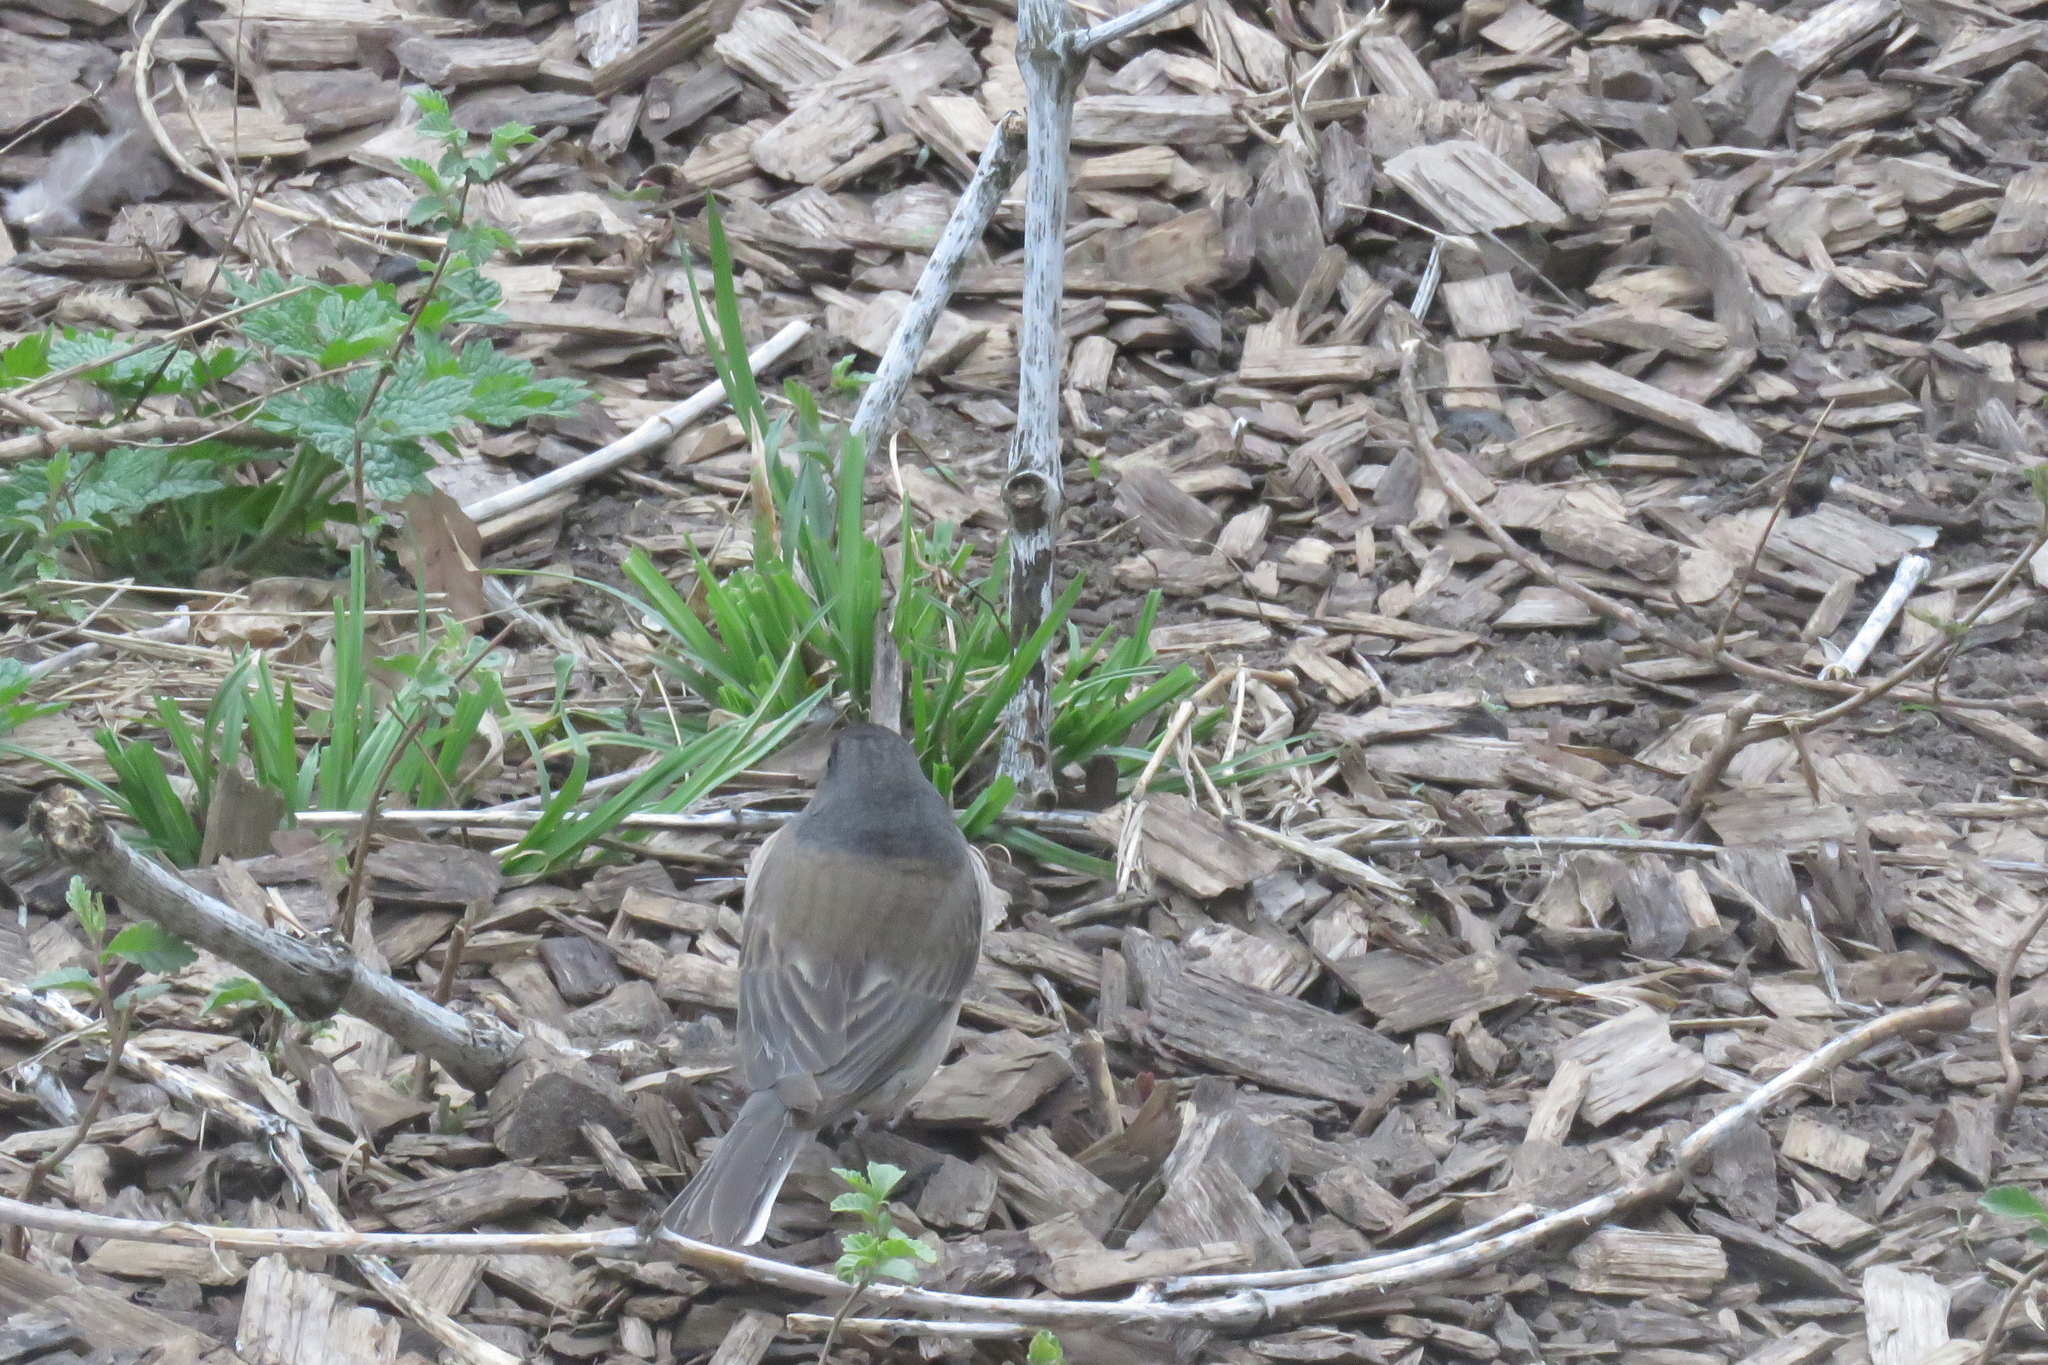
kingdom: Animalia
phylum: Chordata
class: Aves
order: Passeriformes
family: Passerellidae
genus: Junco
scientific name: Junco hyemalis
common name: Dark-eyed junco
